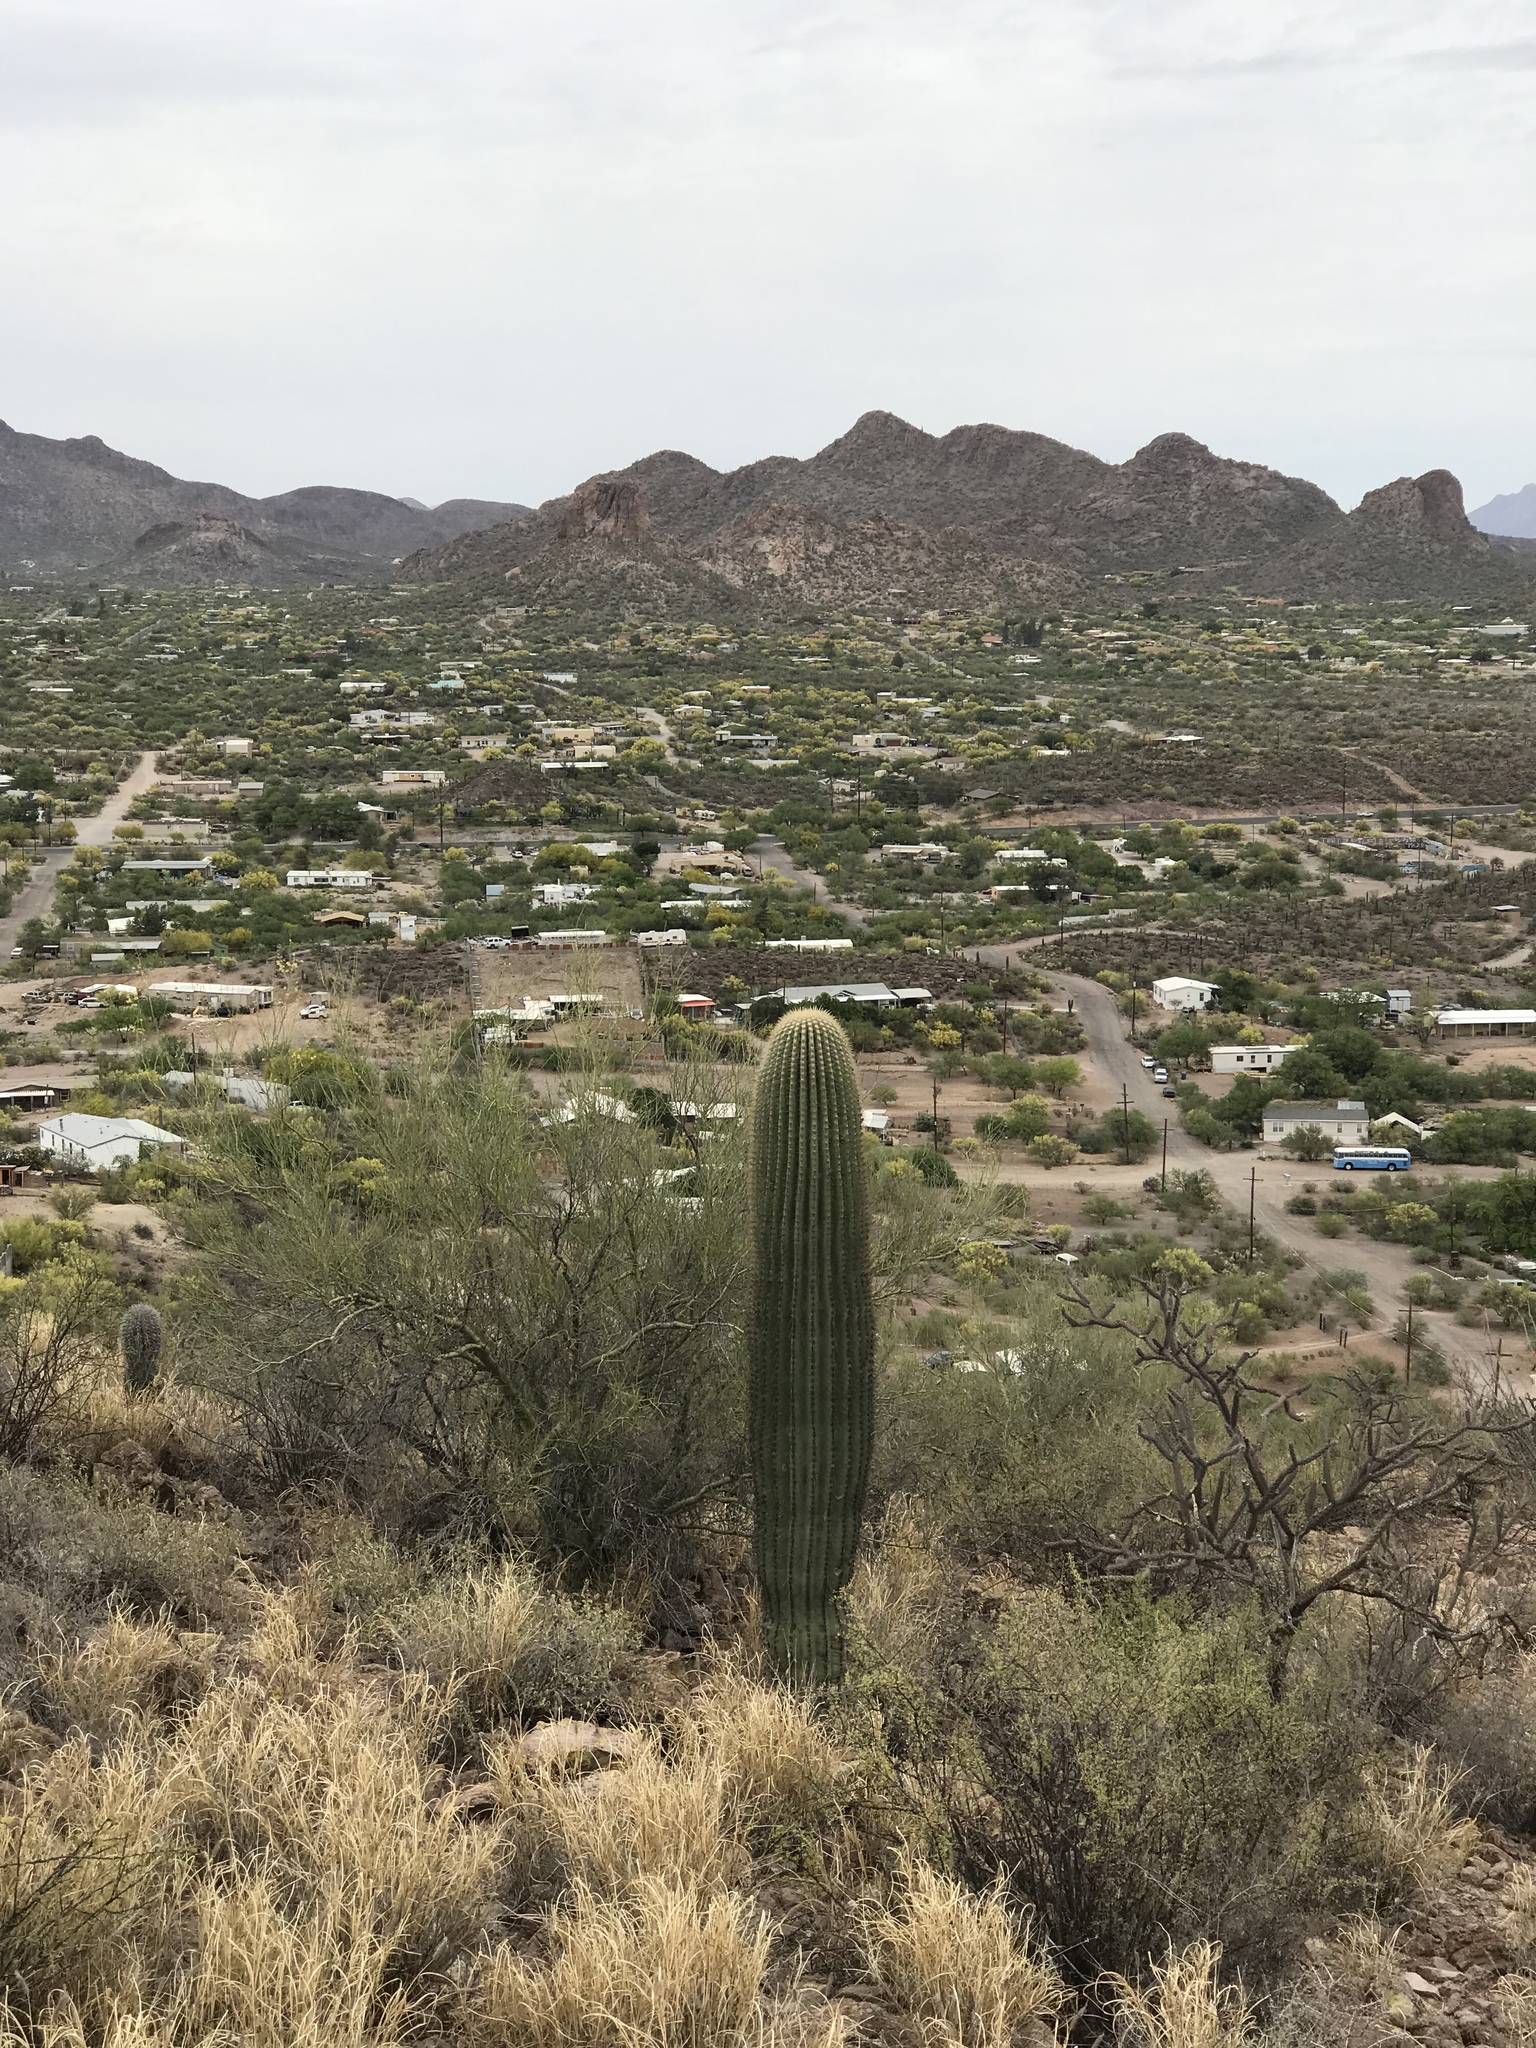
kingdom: Plantae
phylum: Tracheophyta
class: Magnoliopsida
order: Caryophyllales
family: Cactaceae
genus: Carnegiea
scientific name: Carnegiea gigantea
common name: Saguaro
